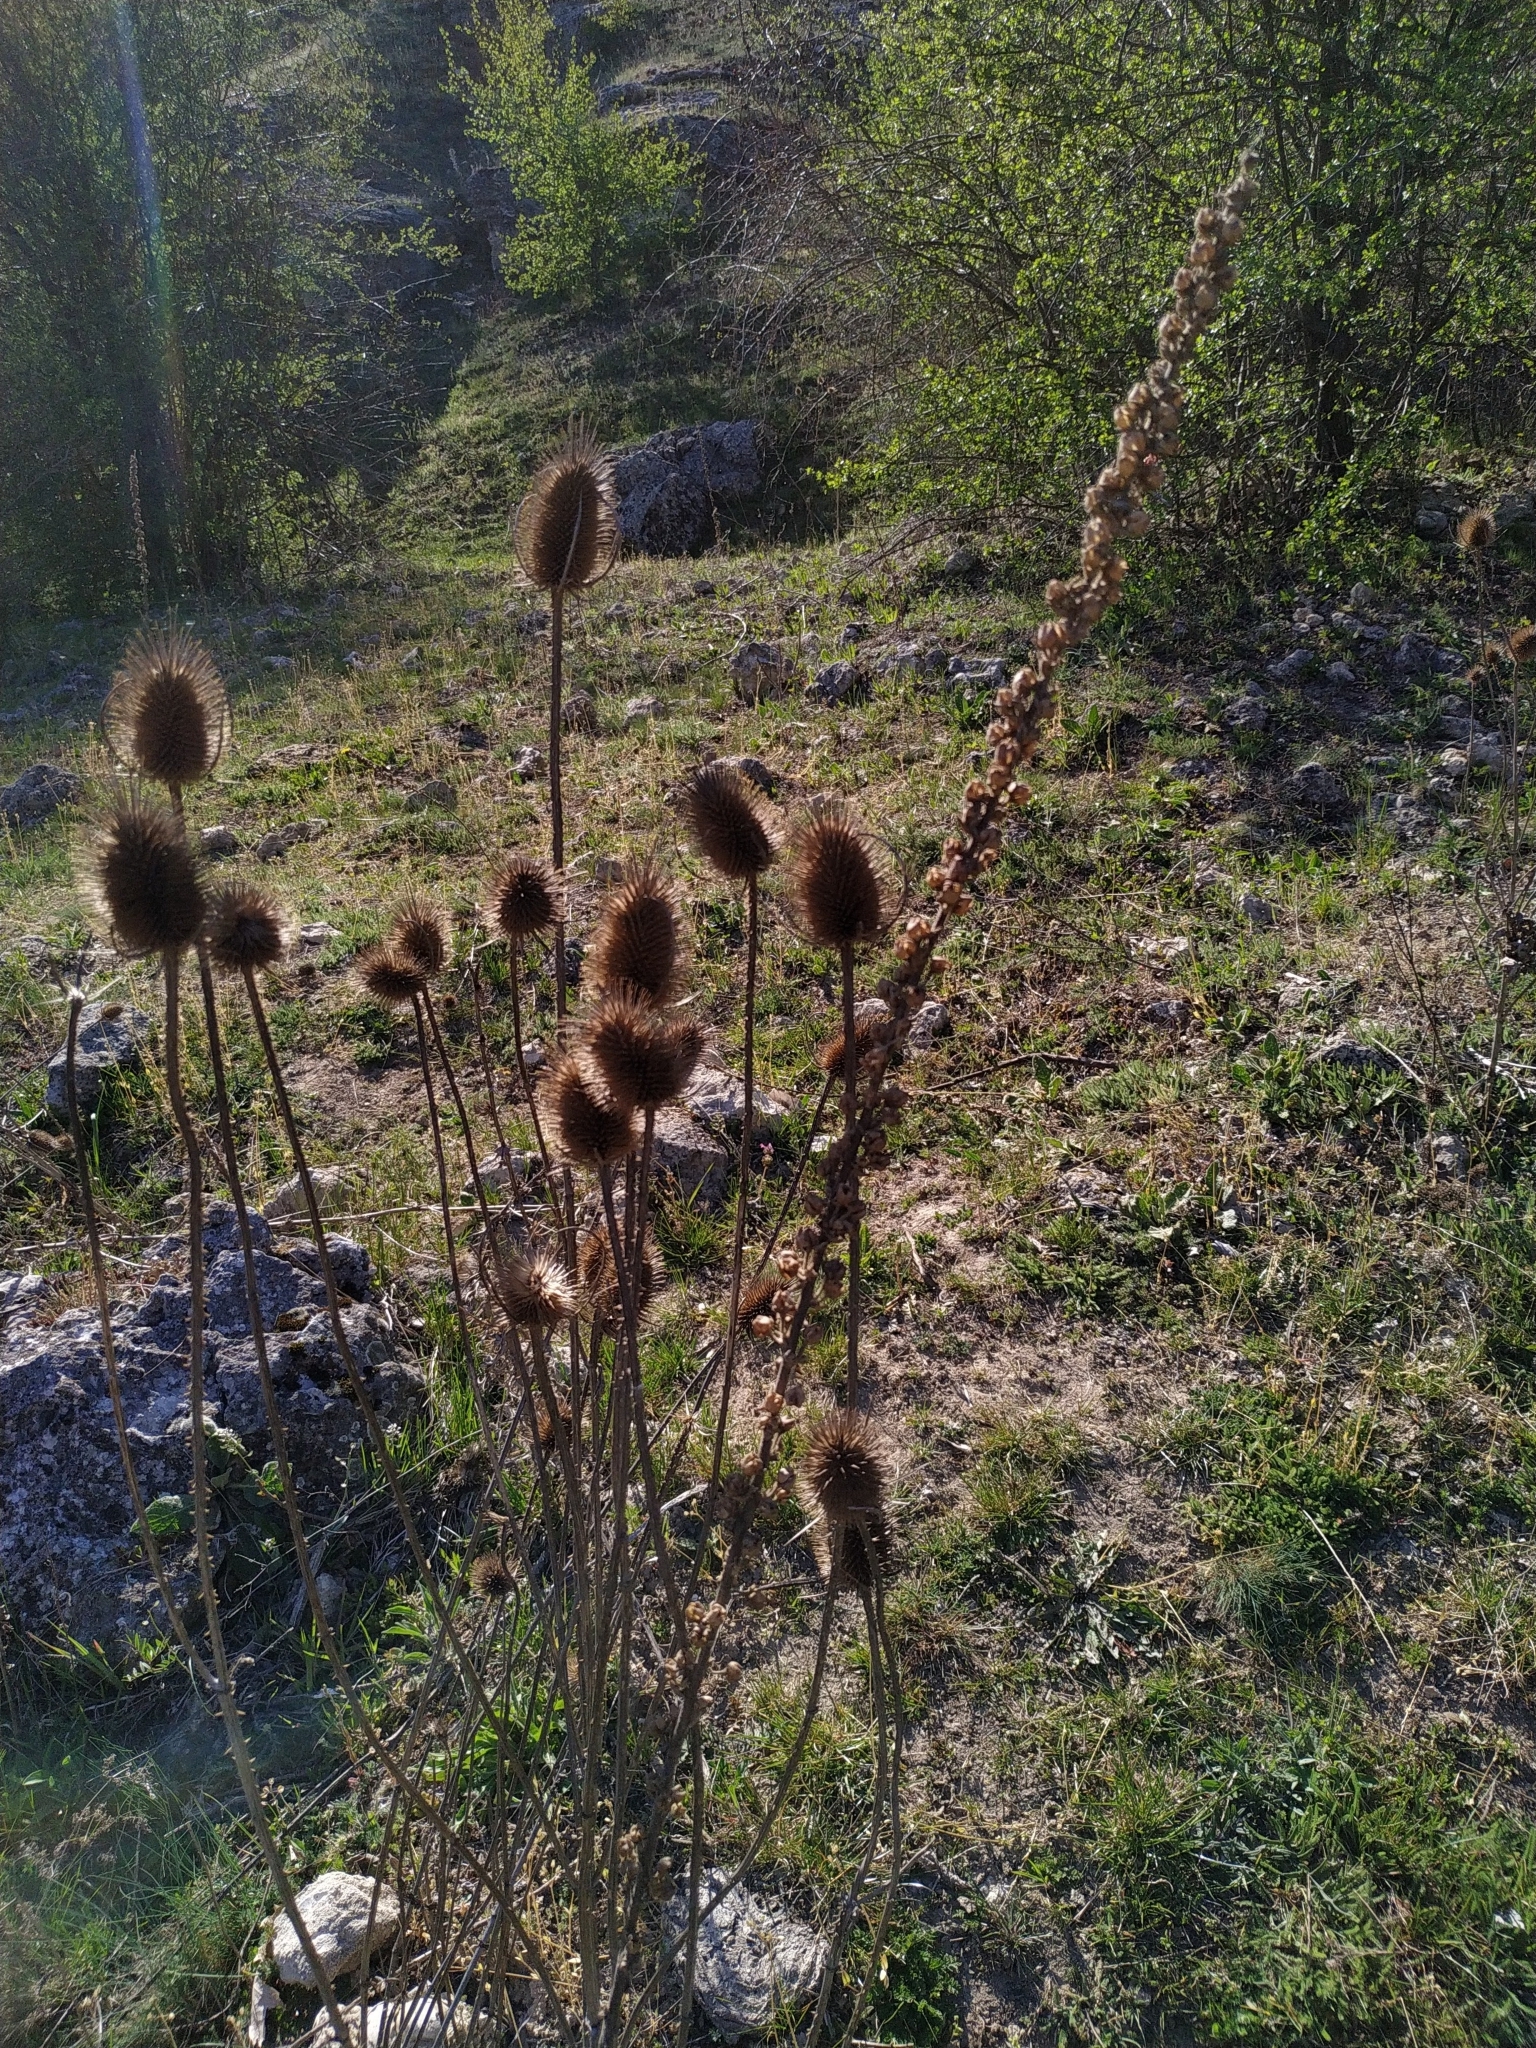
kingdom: Plantae
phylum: Tracheophyta
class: Magnoliopsida
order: Dipsacales
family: Caprifoliaceae
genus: Dipsacus
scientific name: Dipsacus fullonum
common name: Teasel
